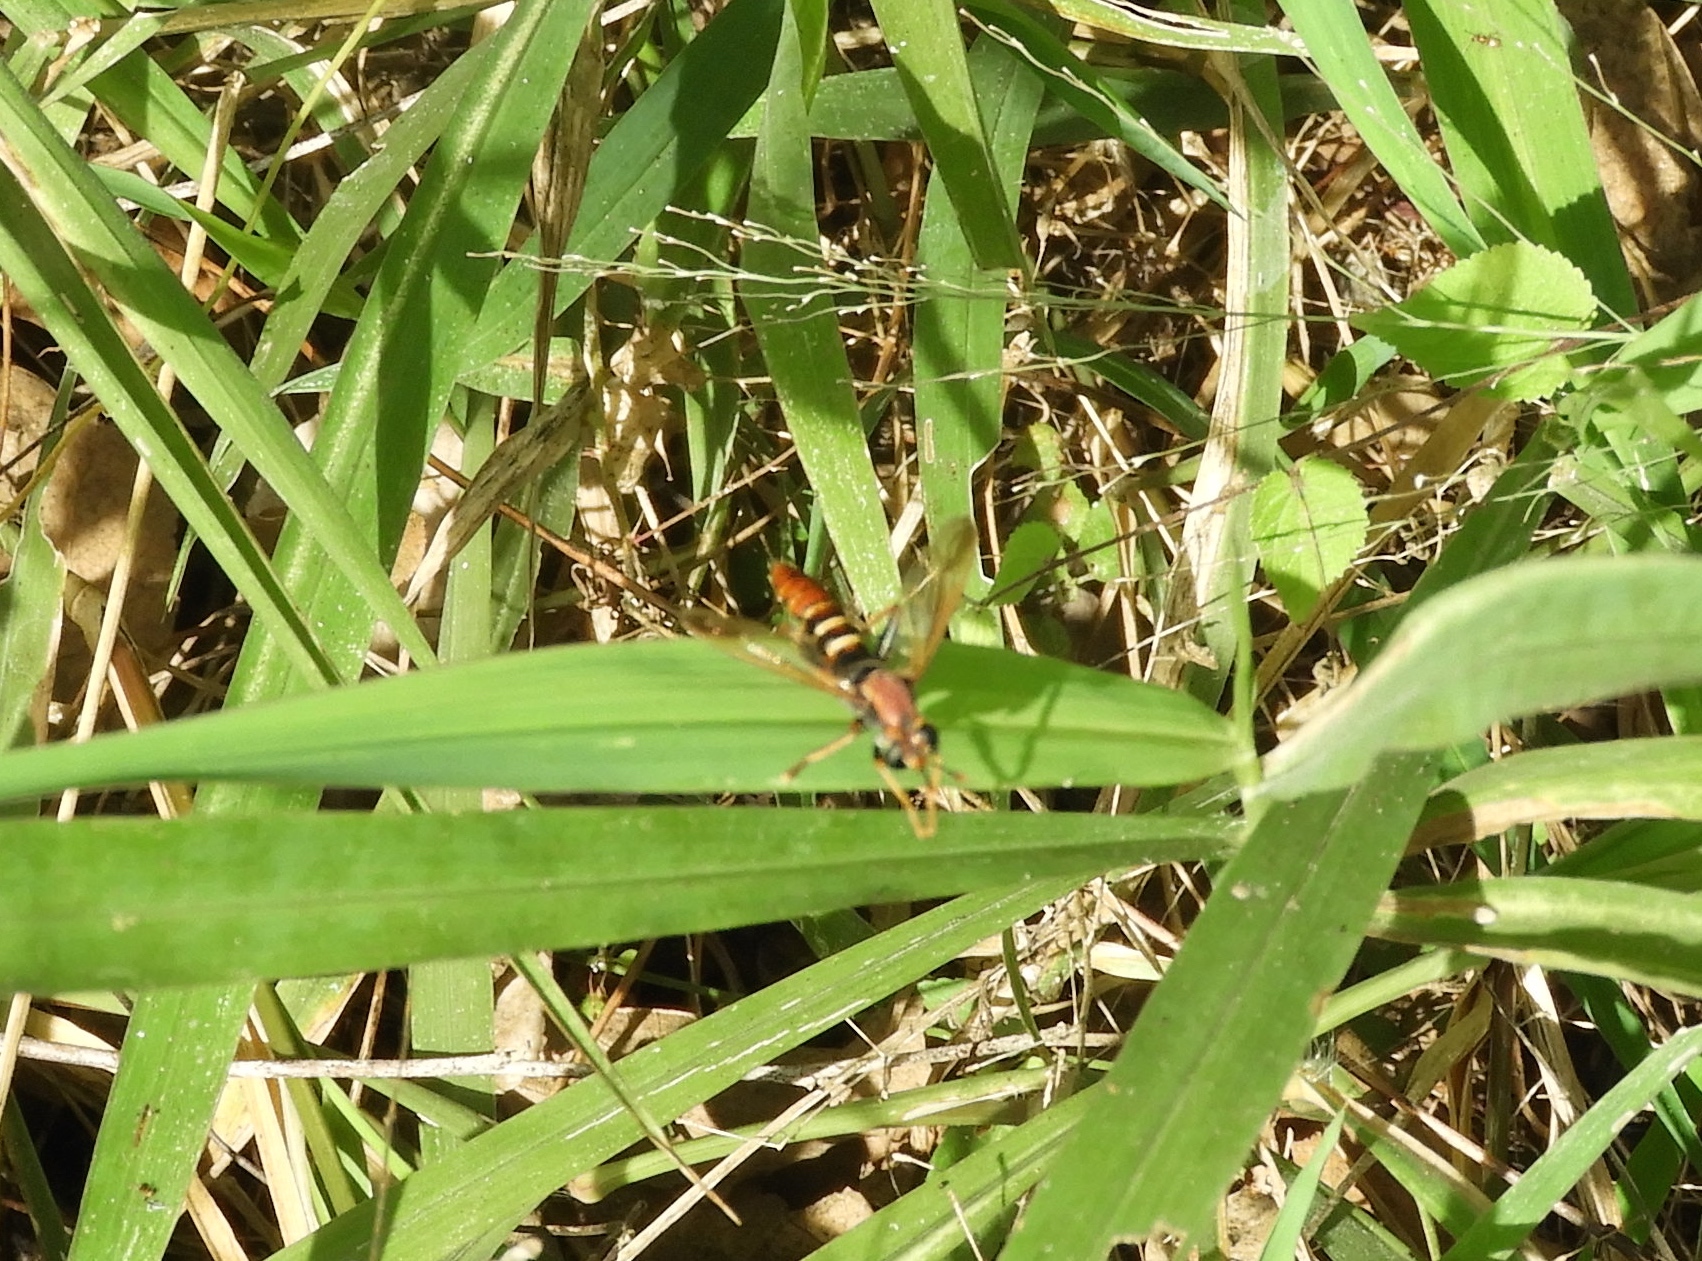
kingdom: Animalia
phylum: Arthropoda
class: Insecta
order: Diptera
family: Mydidae
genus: Mydas
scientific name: Mydas
